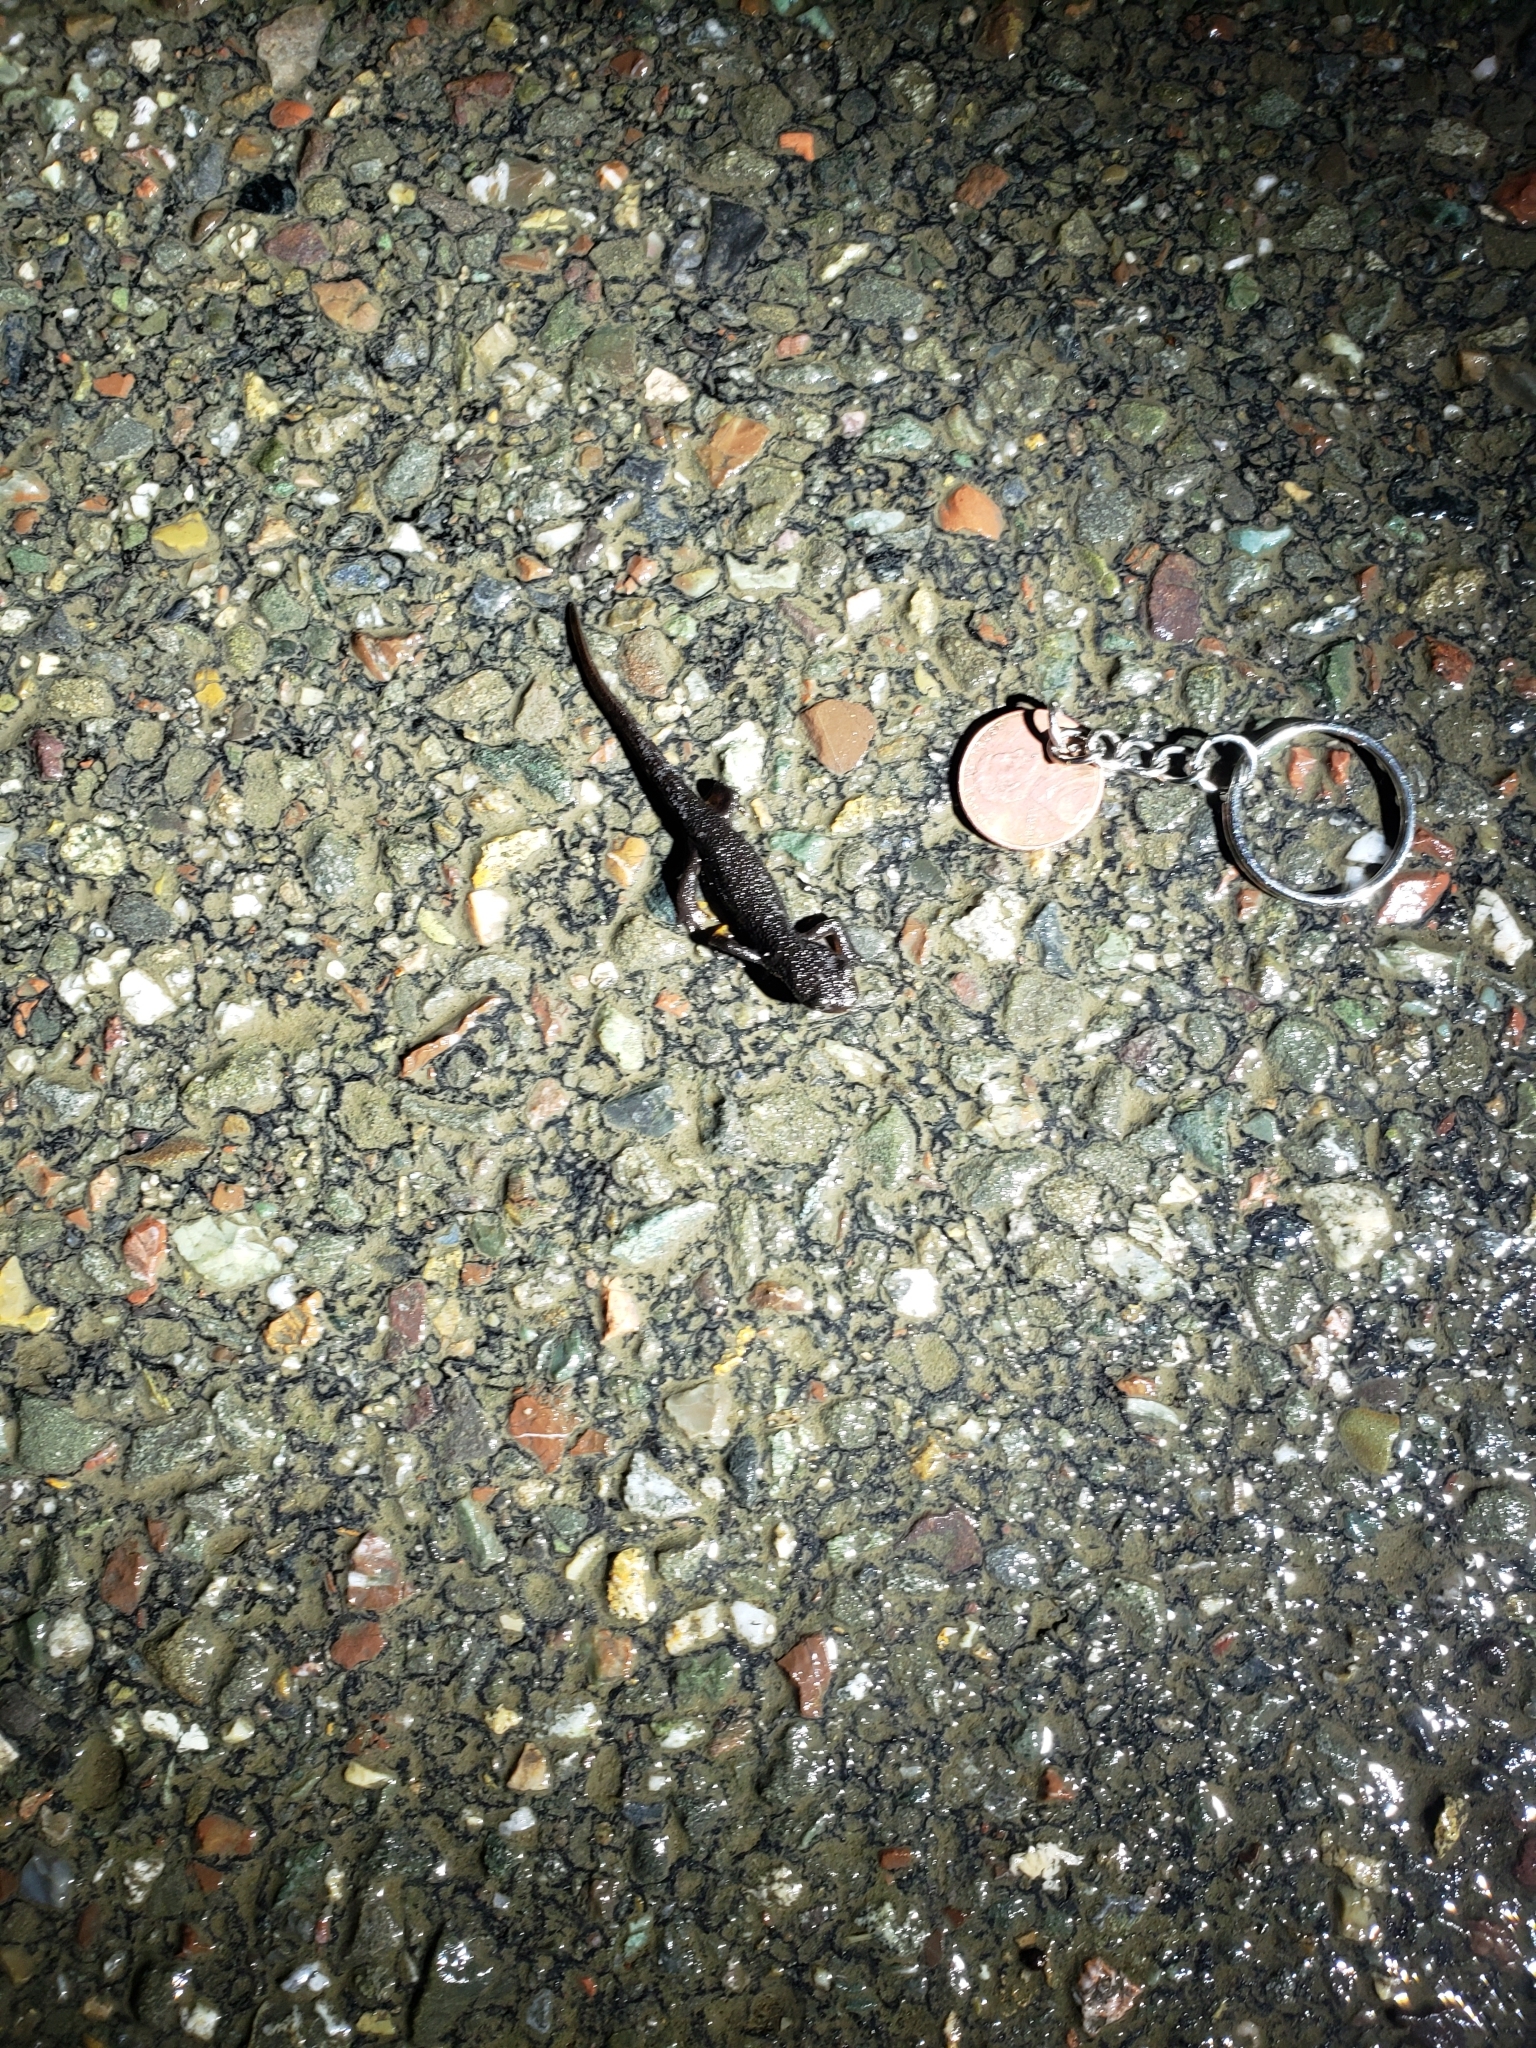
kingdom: Animalia
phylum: Chordata
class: Amphibia
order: Caudata
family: Salamandridae
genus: Taricha
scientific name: Taricha granulosa
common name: Roughskin newt
